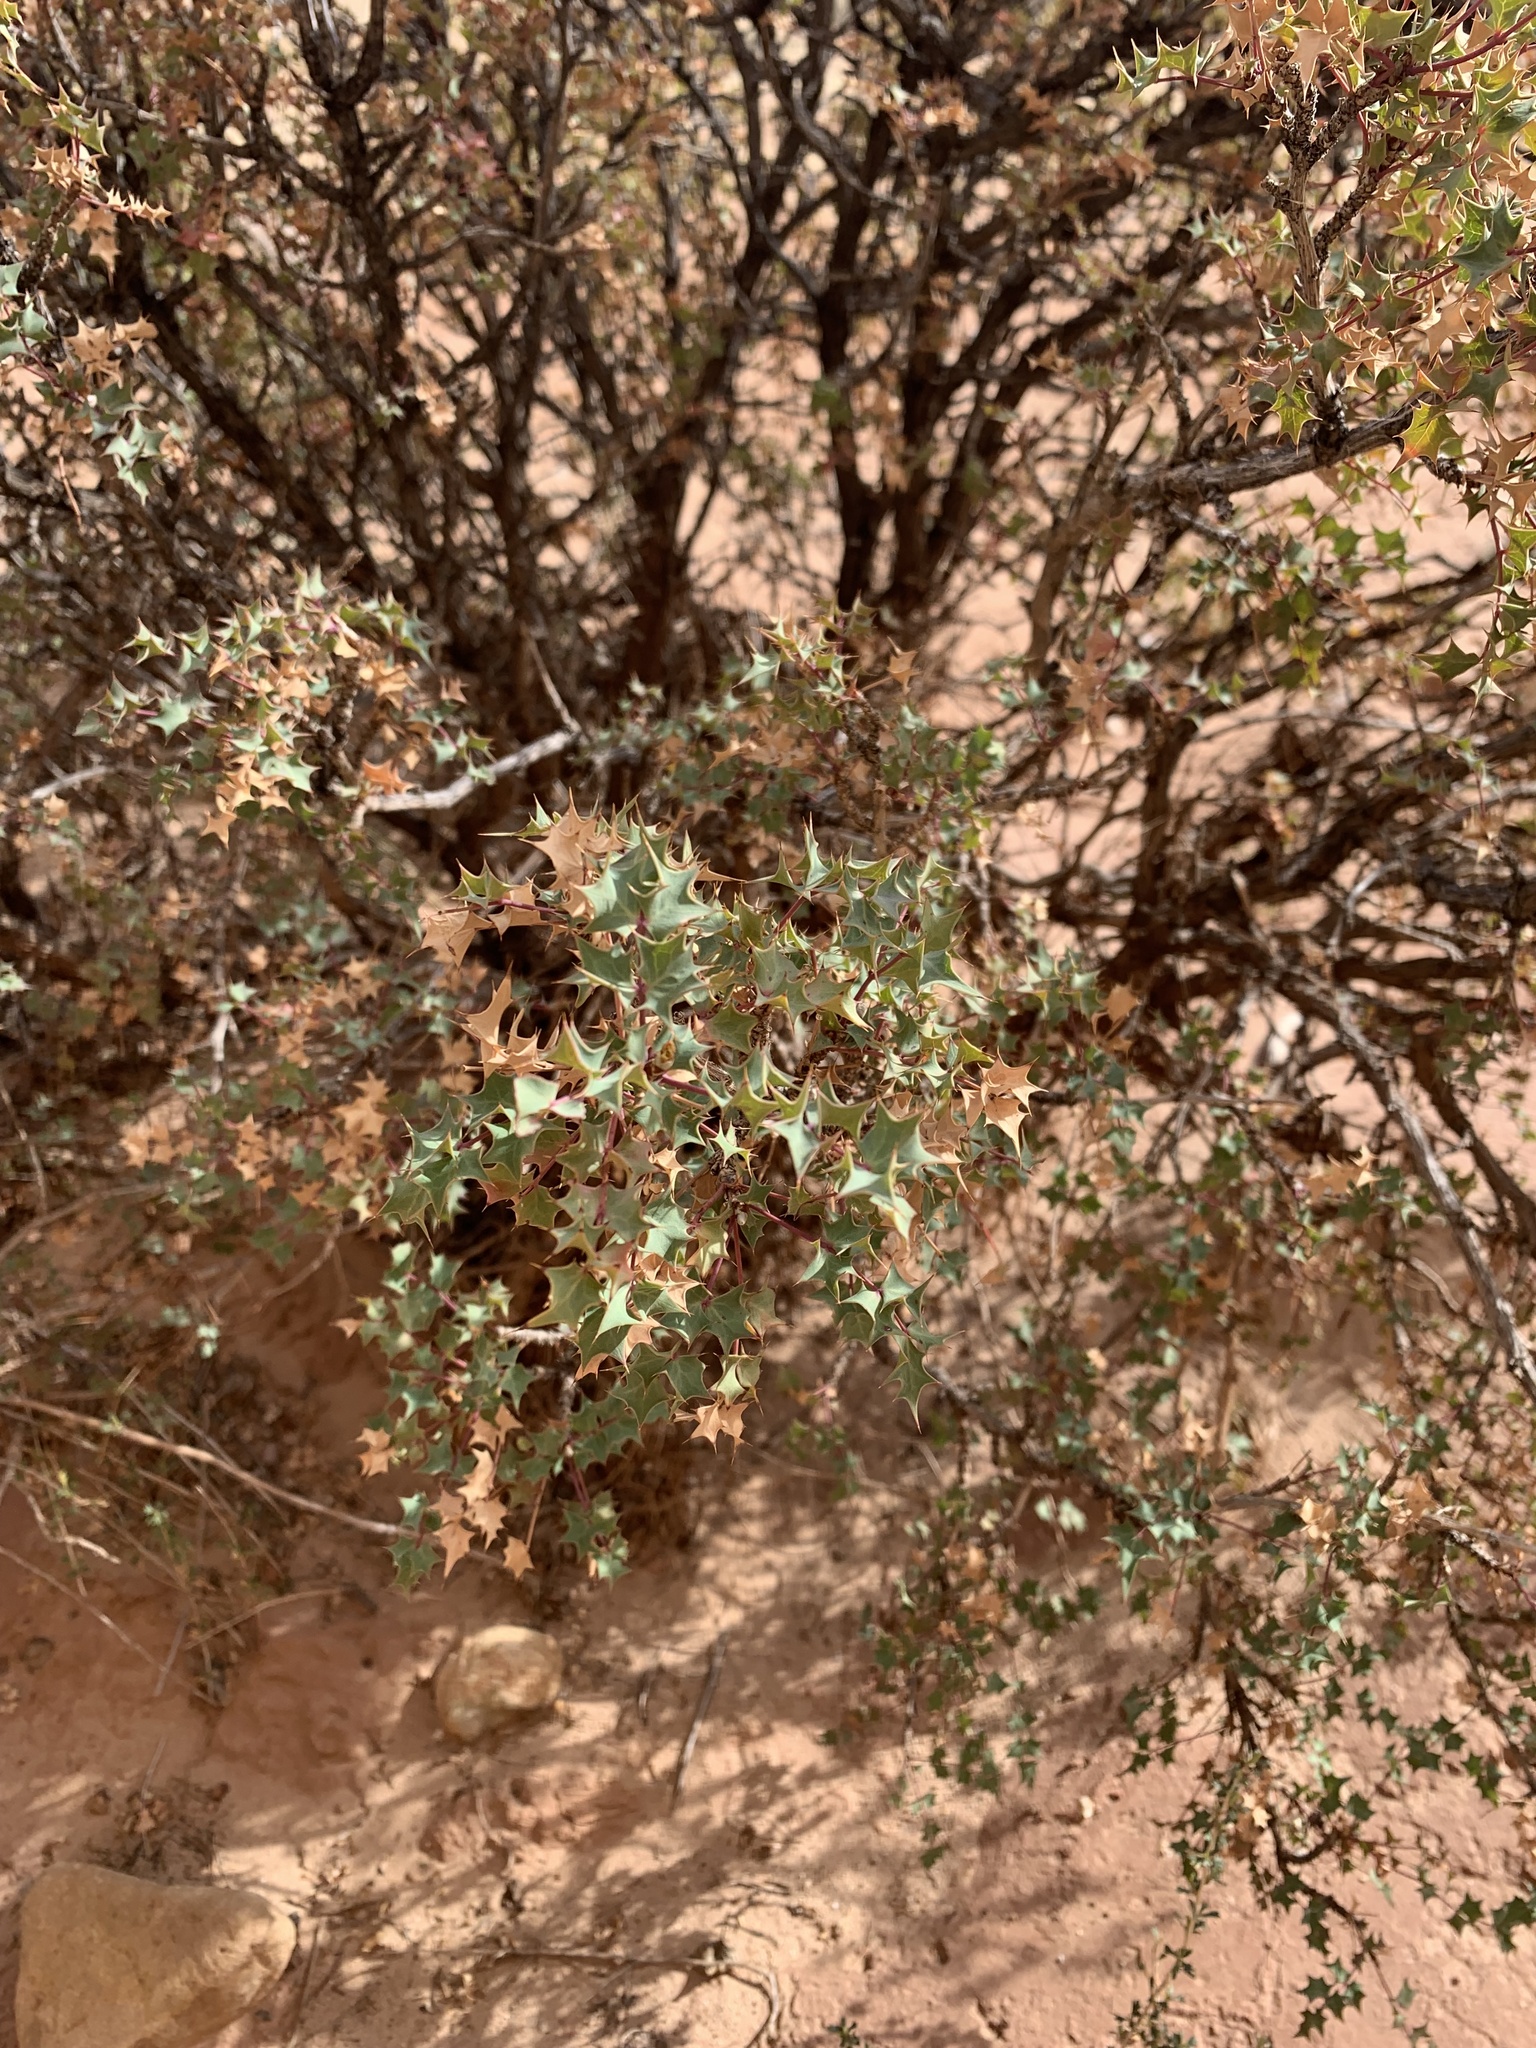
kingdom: Plantae
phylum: Tracheophyta
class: Magnoliopsida
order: Ranunculales
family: Berberidaceae
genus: Alloberberis
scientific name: Alloberberis fremontii
